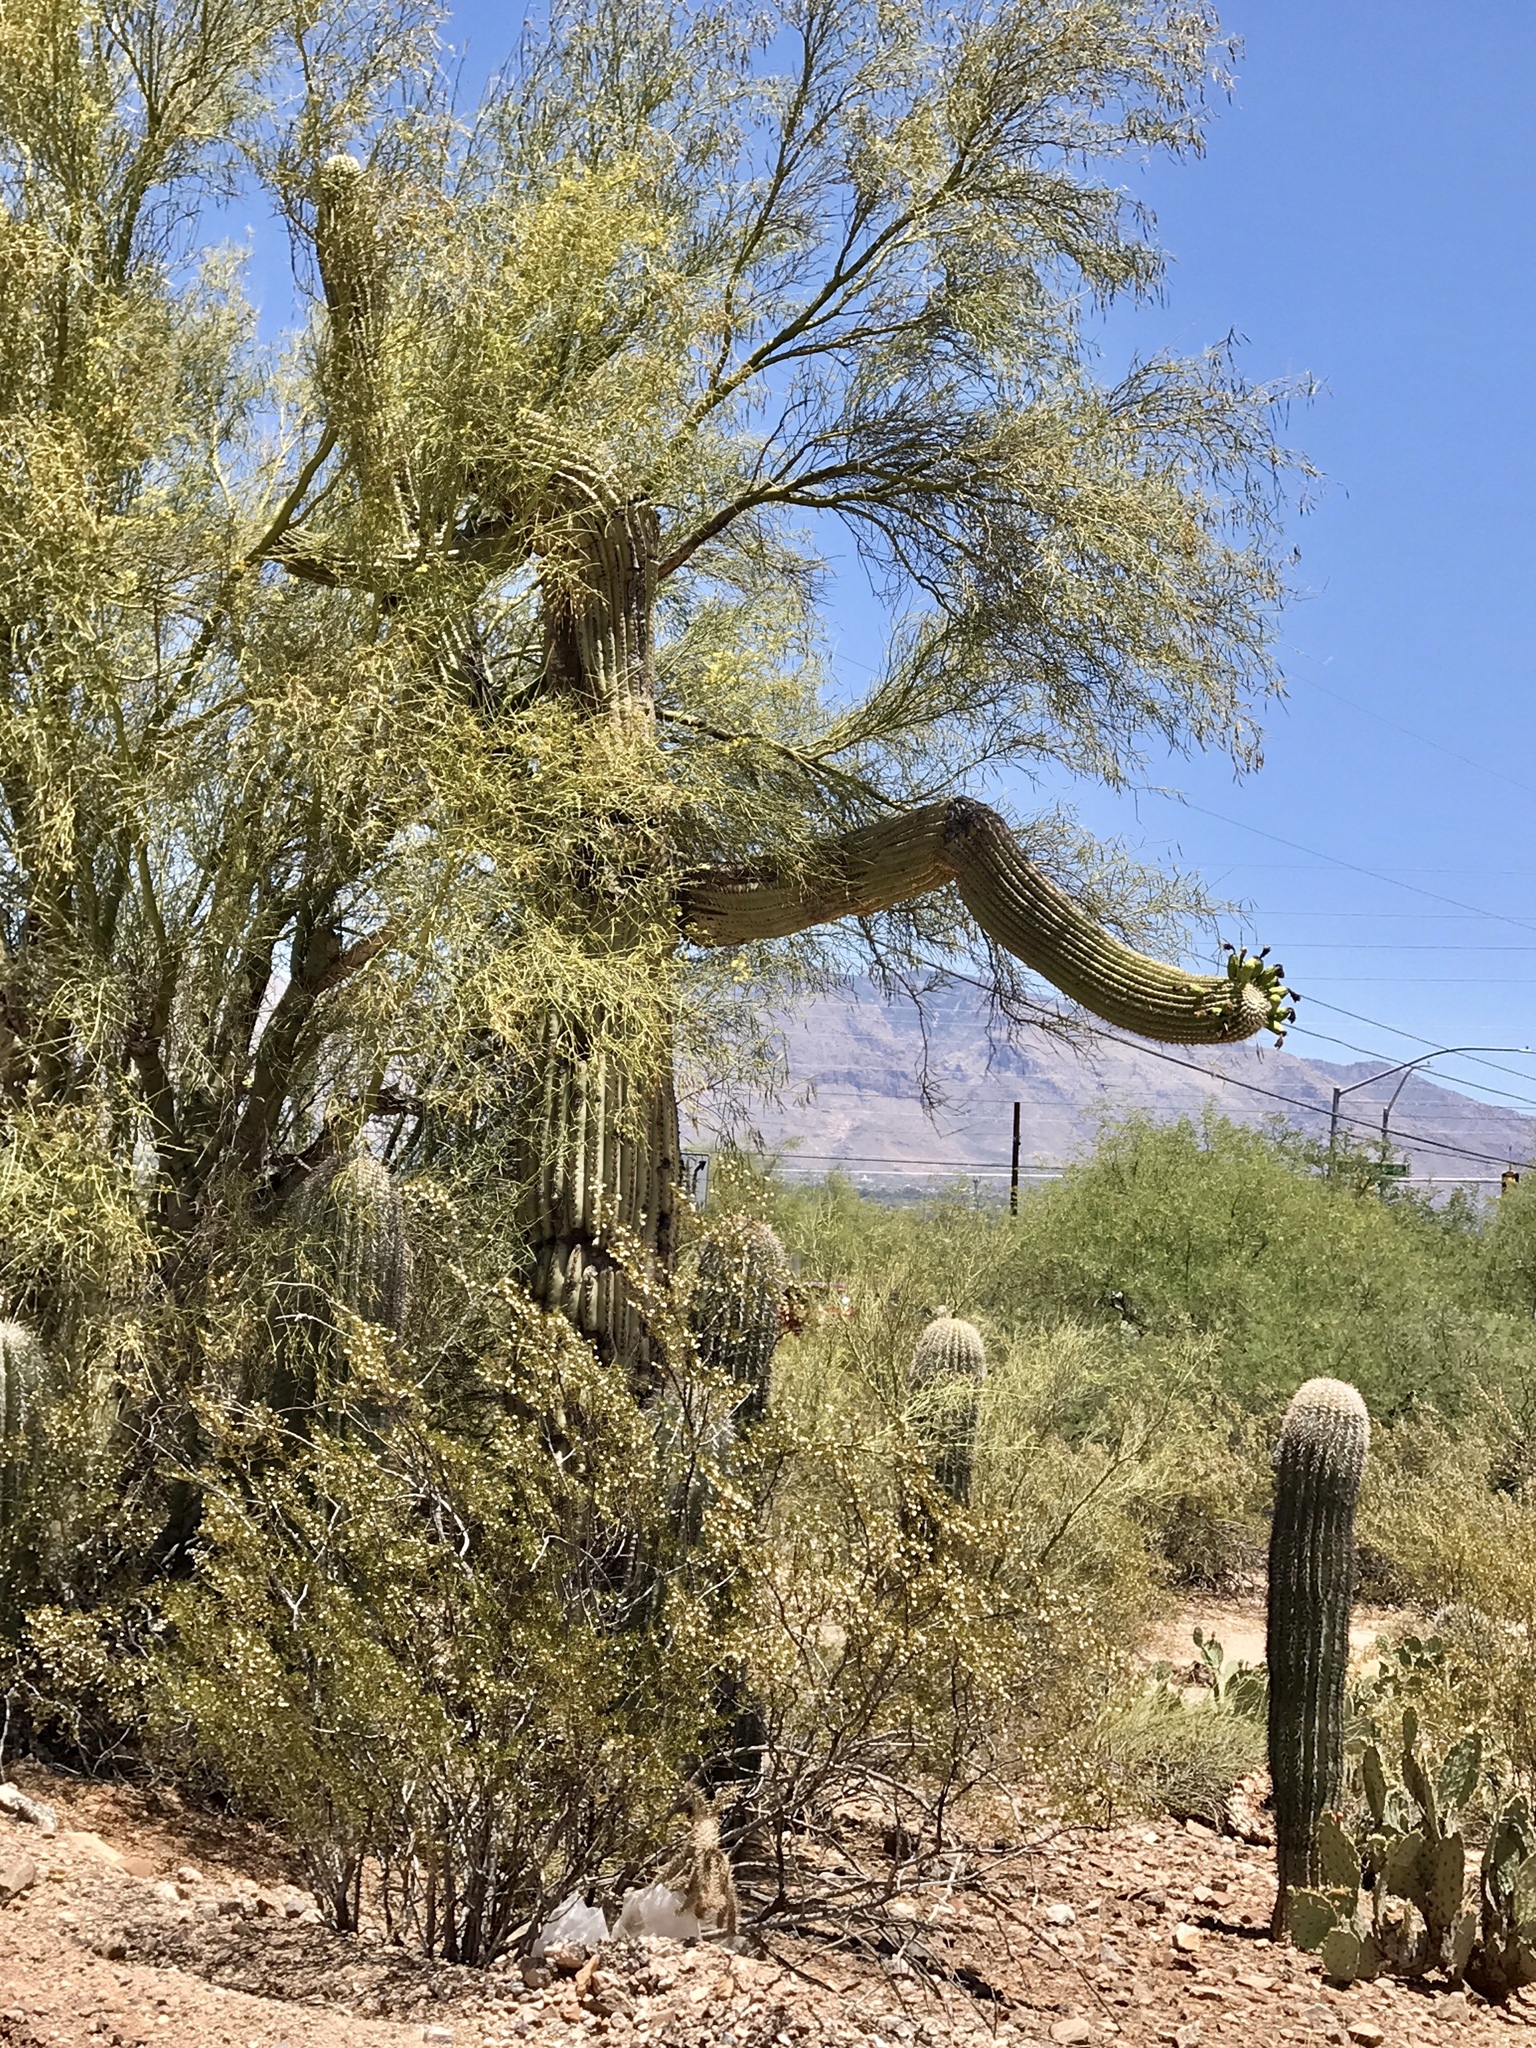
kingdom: Plantae
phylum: Tracheophyta
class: Magnoliopsida
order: Caryophyllales
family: Cactaceae
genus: Carnegiea
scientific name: Carnegiea gigantea
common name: Saguaro
